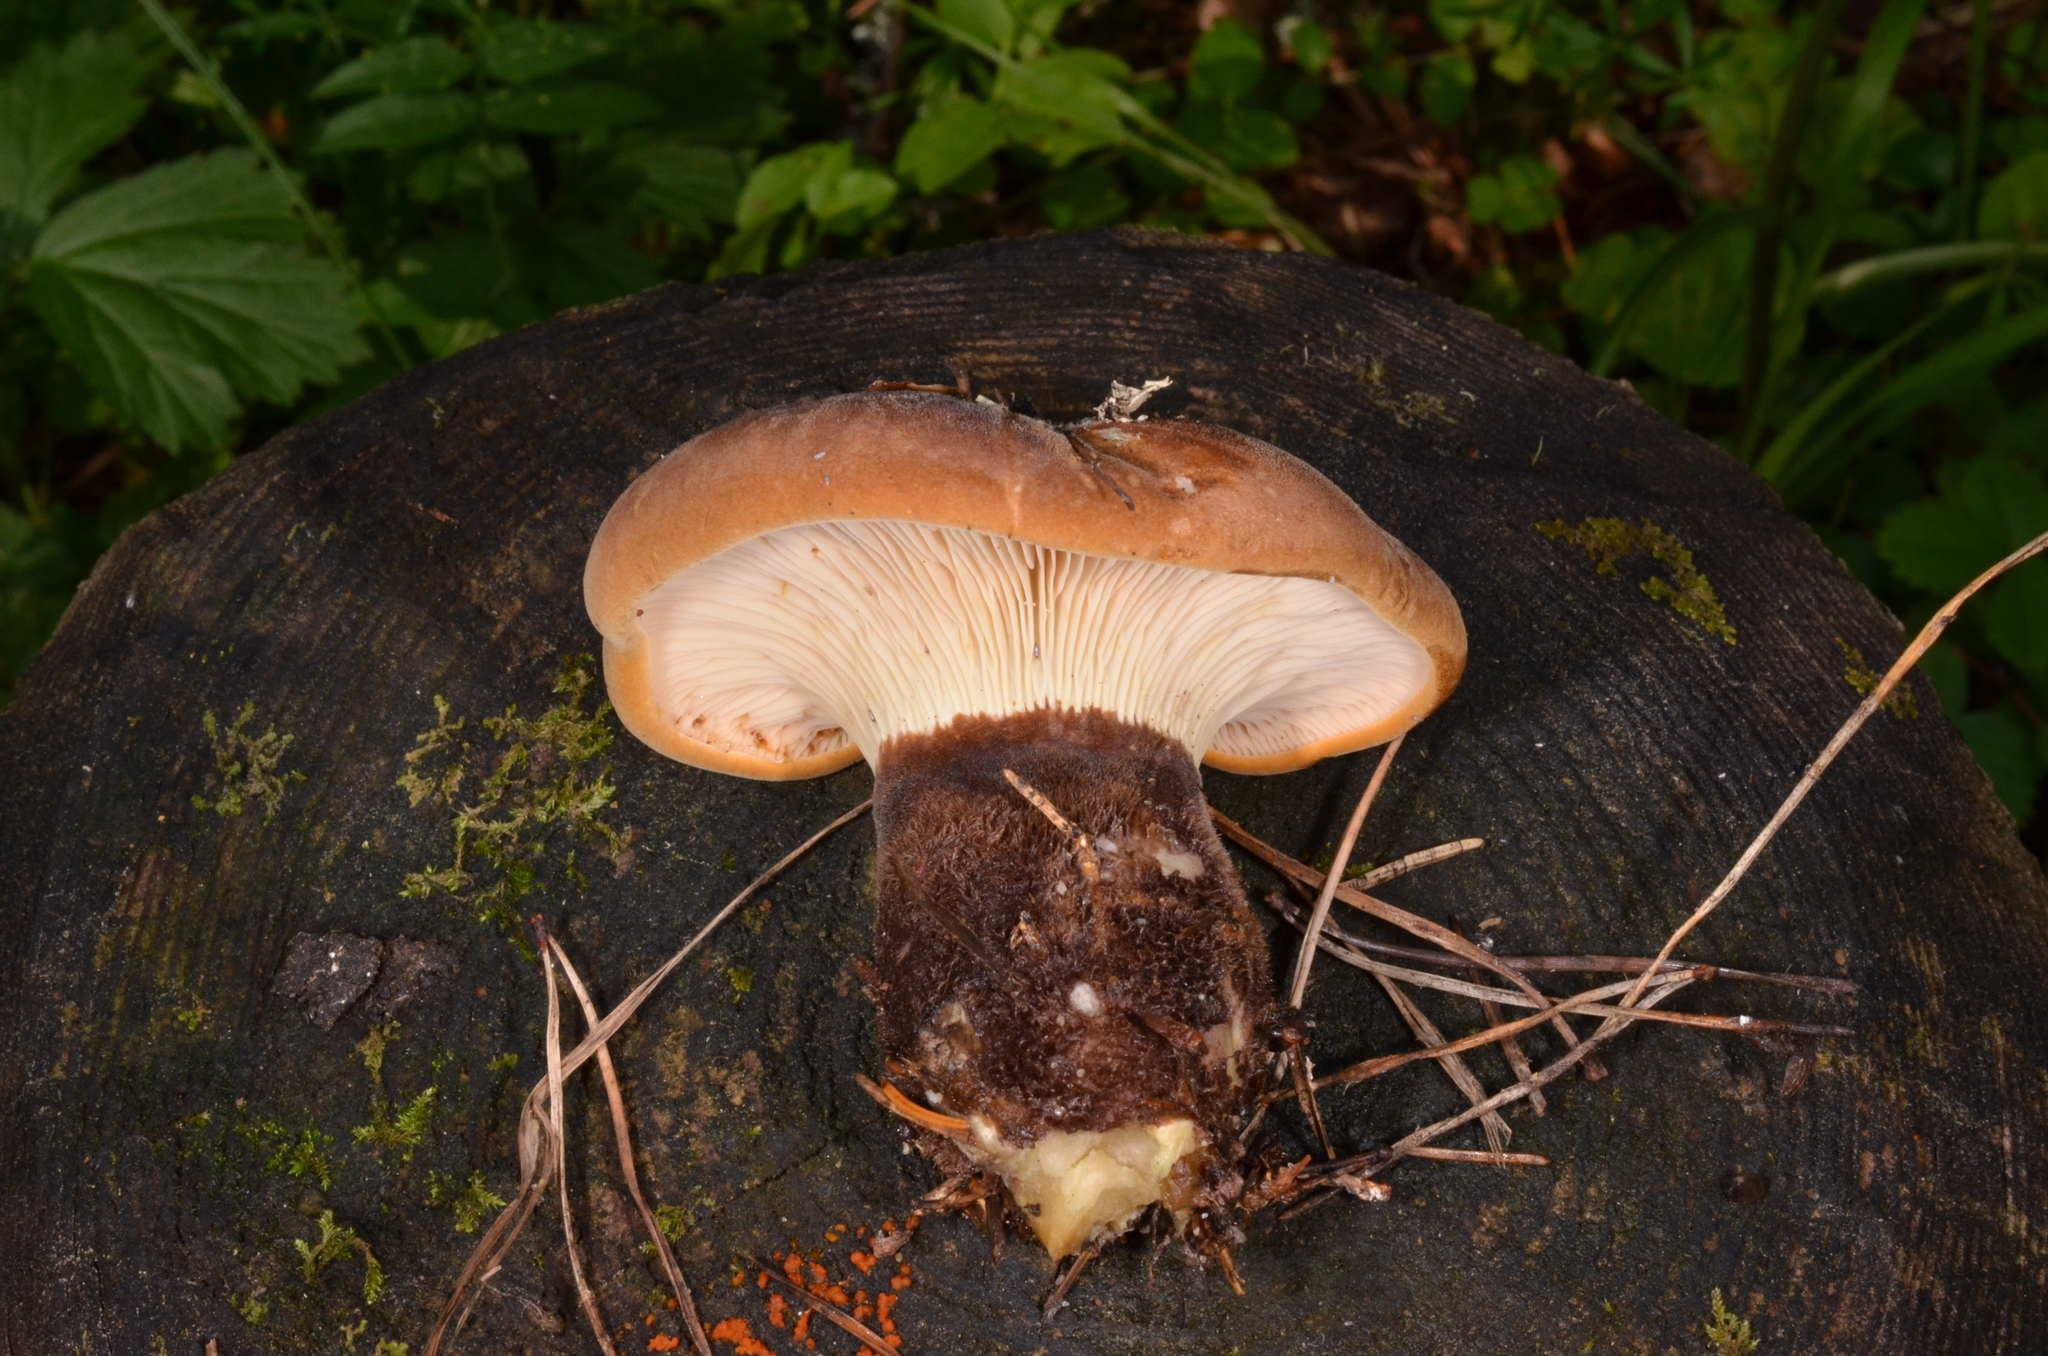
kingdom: Fungi
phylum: Basidiomycota
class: Agaricomycetes
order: Boletales
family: Tapinellaceae
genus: Tapinella
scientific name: Tapinella atrotomentosa
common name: Velvet rollrim
